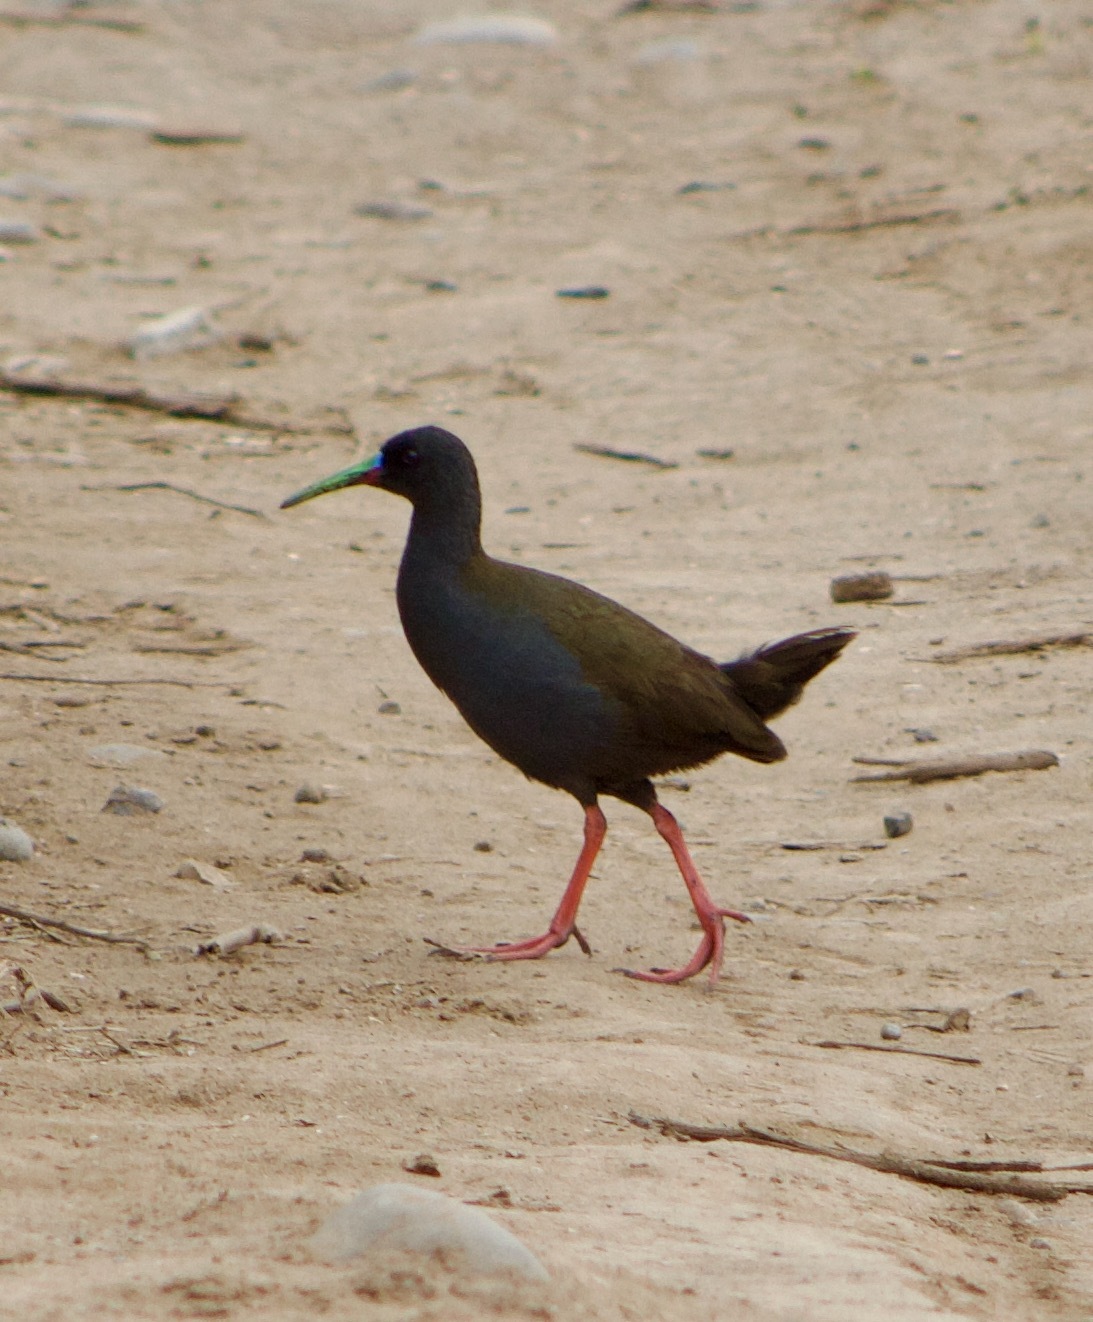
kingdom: Animalia
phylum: Chordata
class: Aves
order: Gruiformes
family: Rallidae
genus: Pardirallus
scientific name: Pardirallus sanguinolentus
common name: Plumbeous rail
